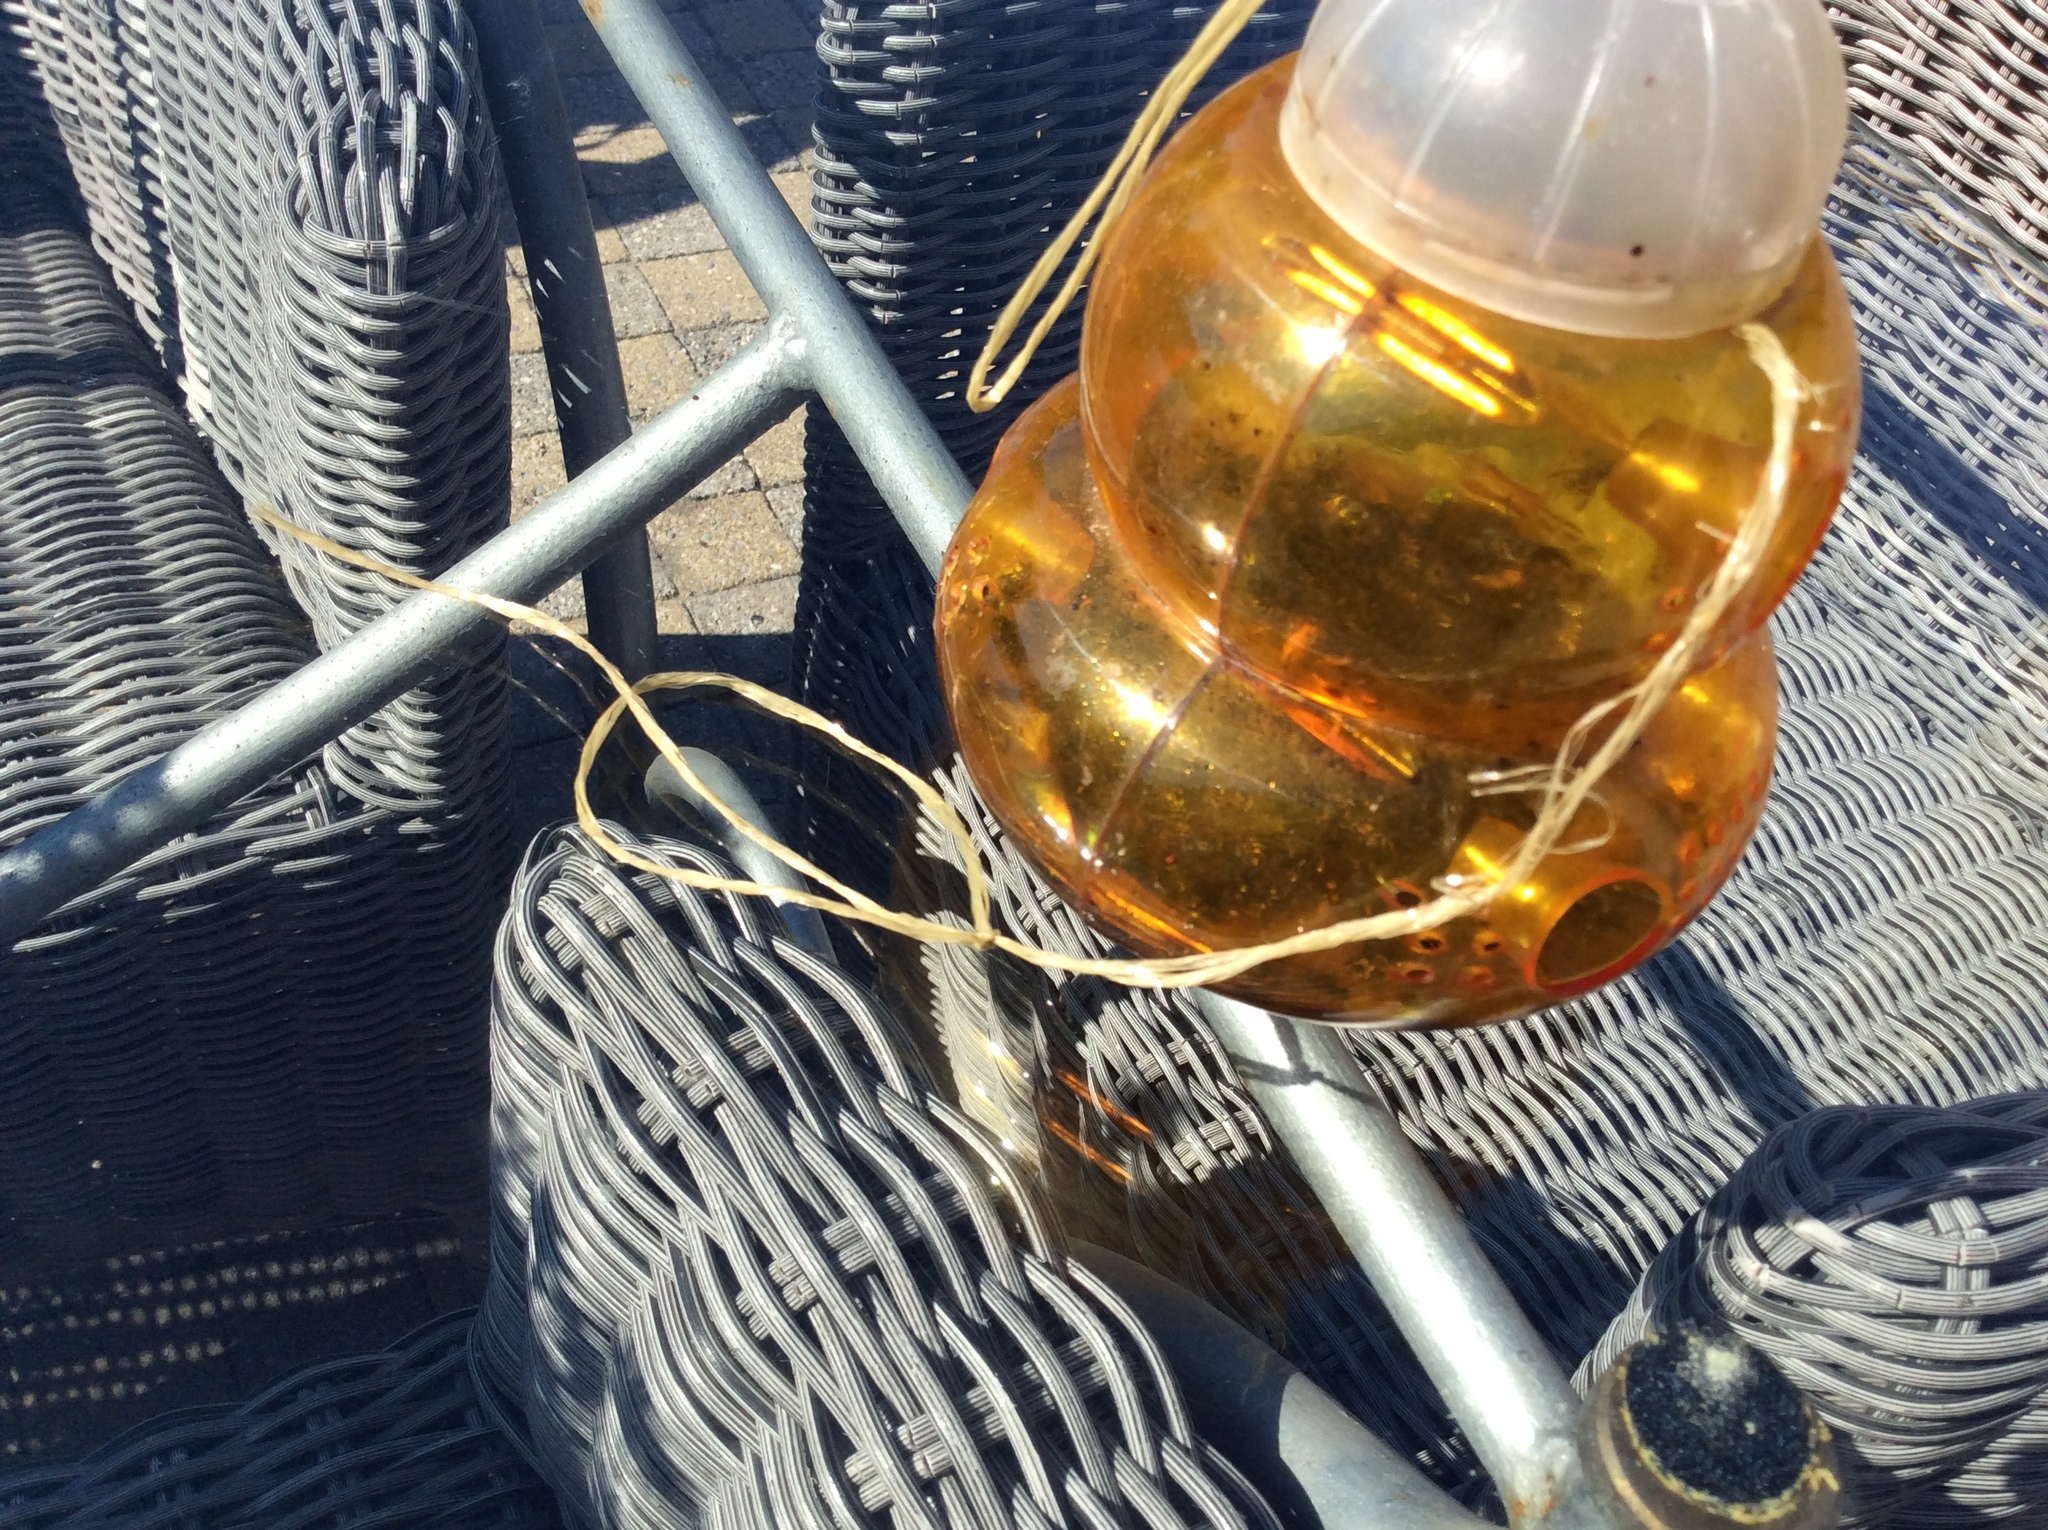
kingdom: Animalia
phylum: Arthropoda
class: Insecta
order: Hymenoptera
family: Vespidae
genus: Vespa
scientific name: Vespa velutina
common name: Asian hornet
